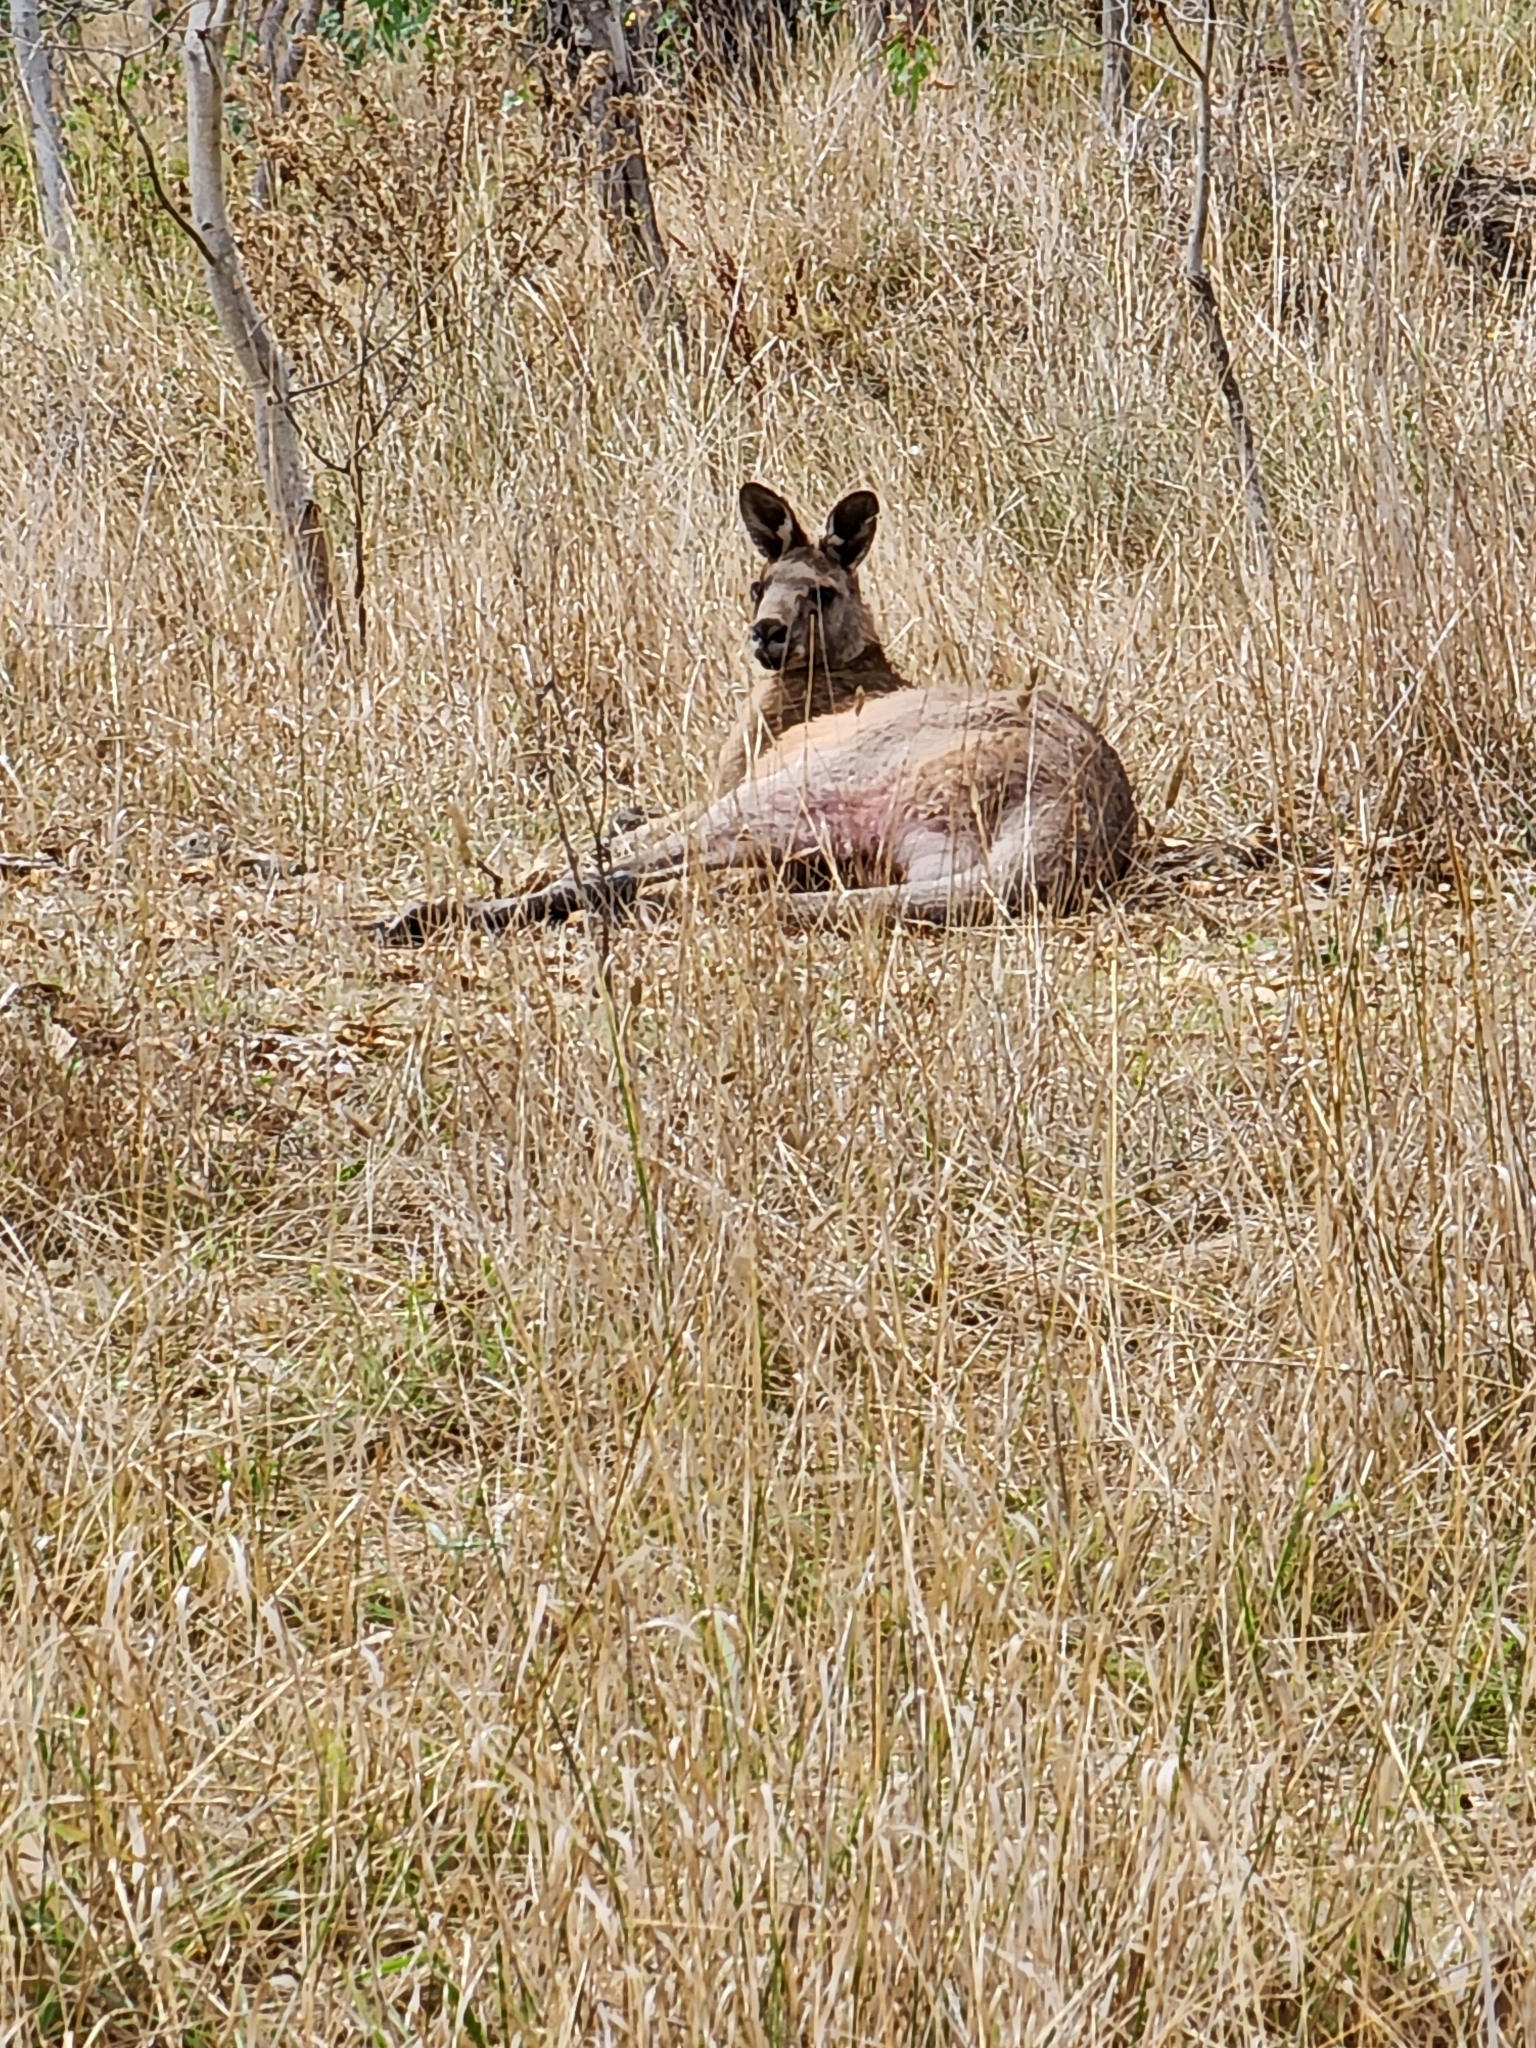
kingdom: Animalia
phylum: Chordata
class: Mammalia
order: Diprotodontia
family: Macropodidae
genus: Macropus
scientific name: Macropus giganteus
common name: Eastern grey kangaroo
